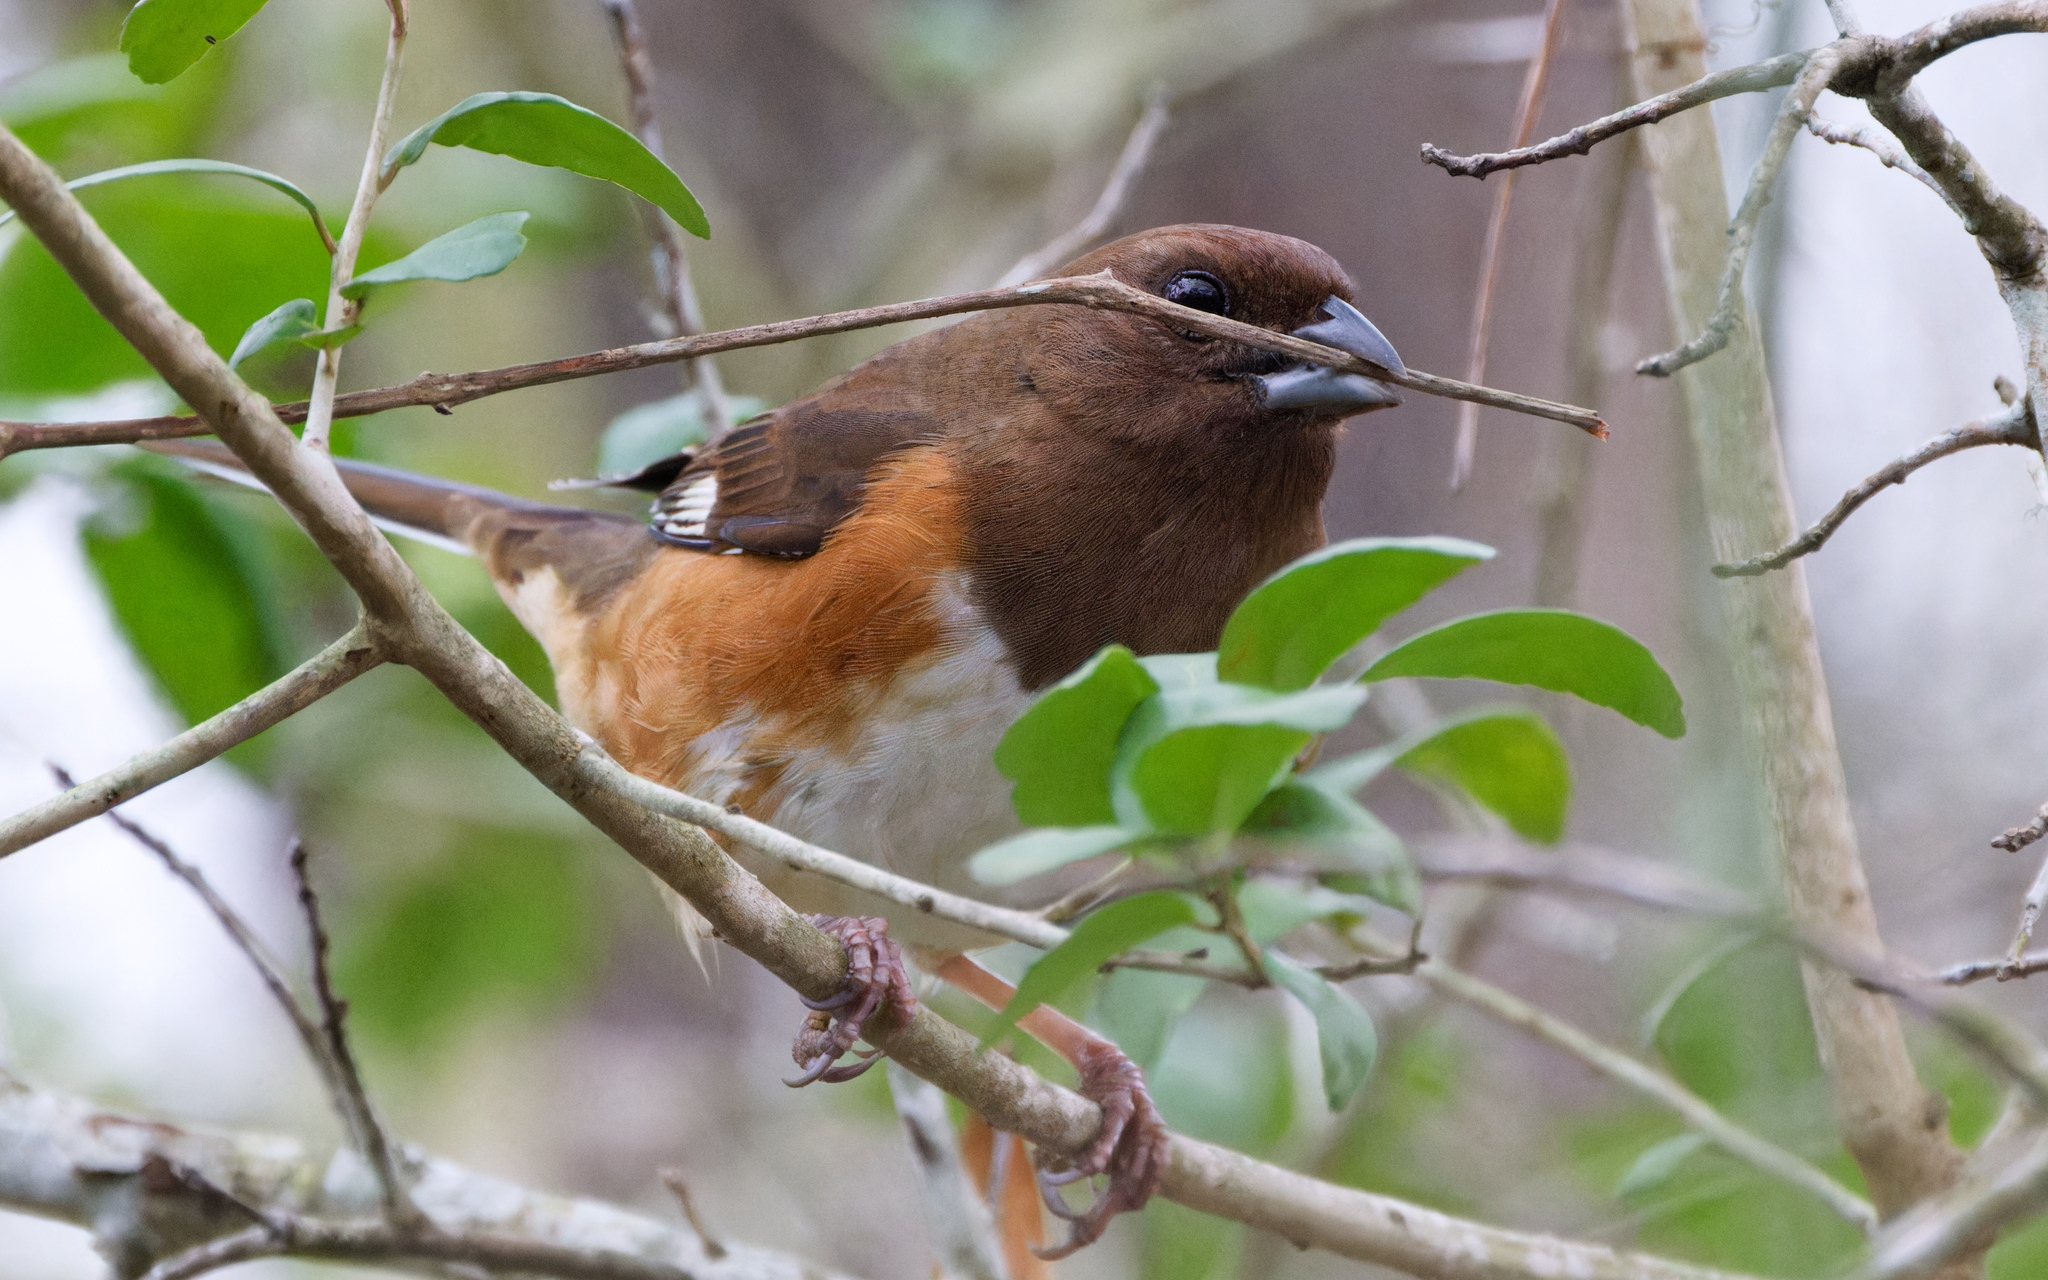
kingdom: Animalia
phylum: Chordata
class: Aves
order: Passeriformes
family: Passerellidae
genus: Pipilo
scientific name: Pipilo erythrophthalmus
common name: Eastern towhee
